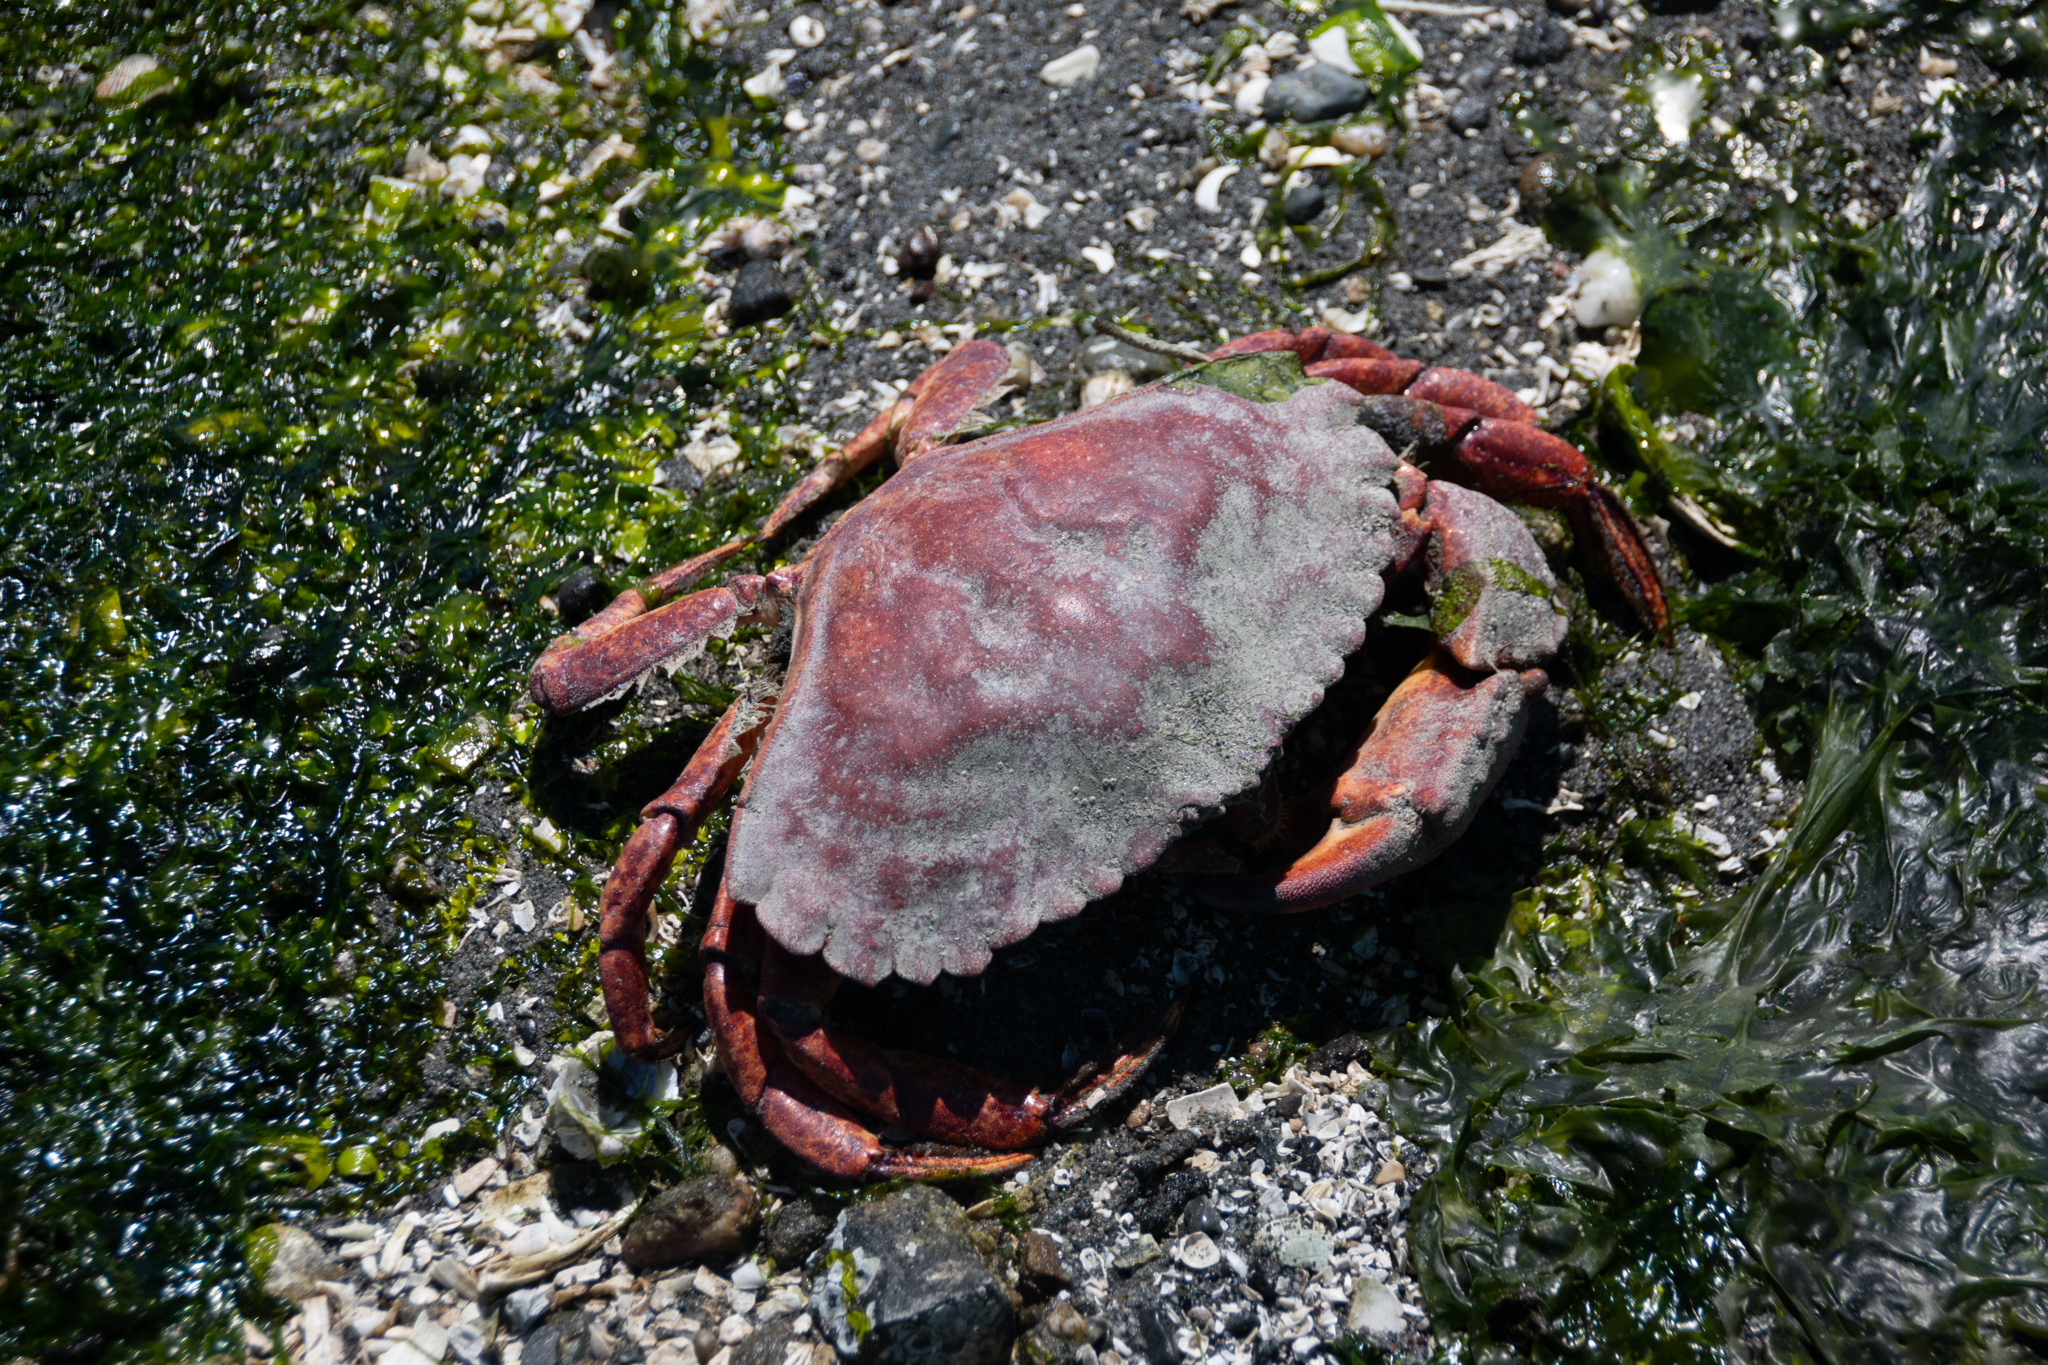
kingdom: Animalia
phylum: Arthropoda
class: Malacostraca
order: Decapoda
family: Cancridae
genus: Cancer
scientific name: Cancer productus
